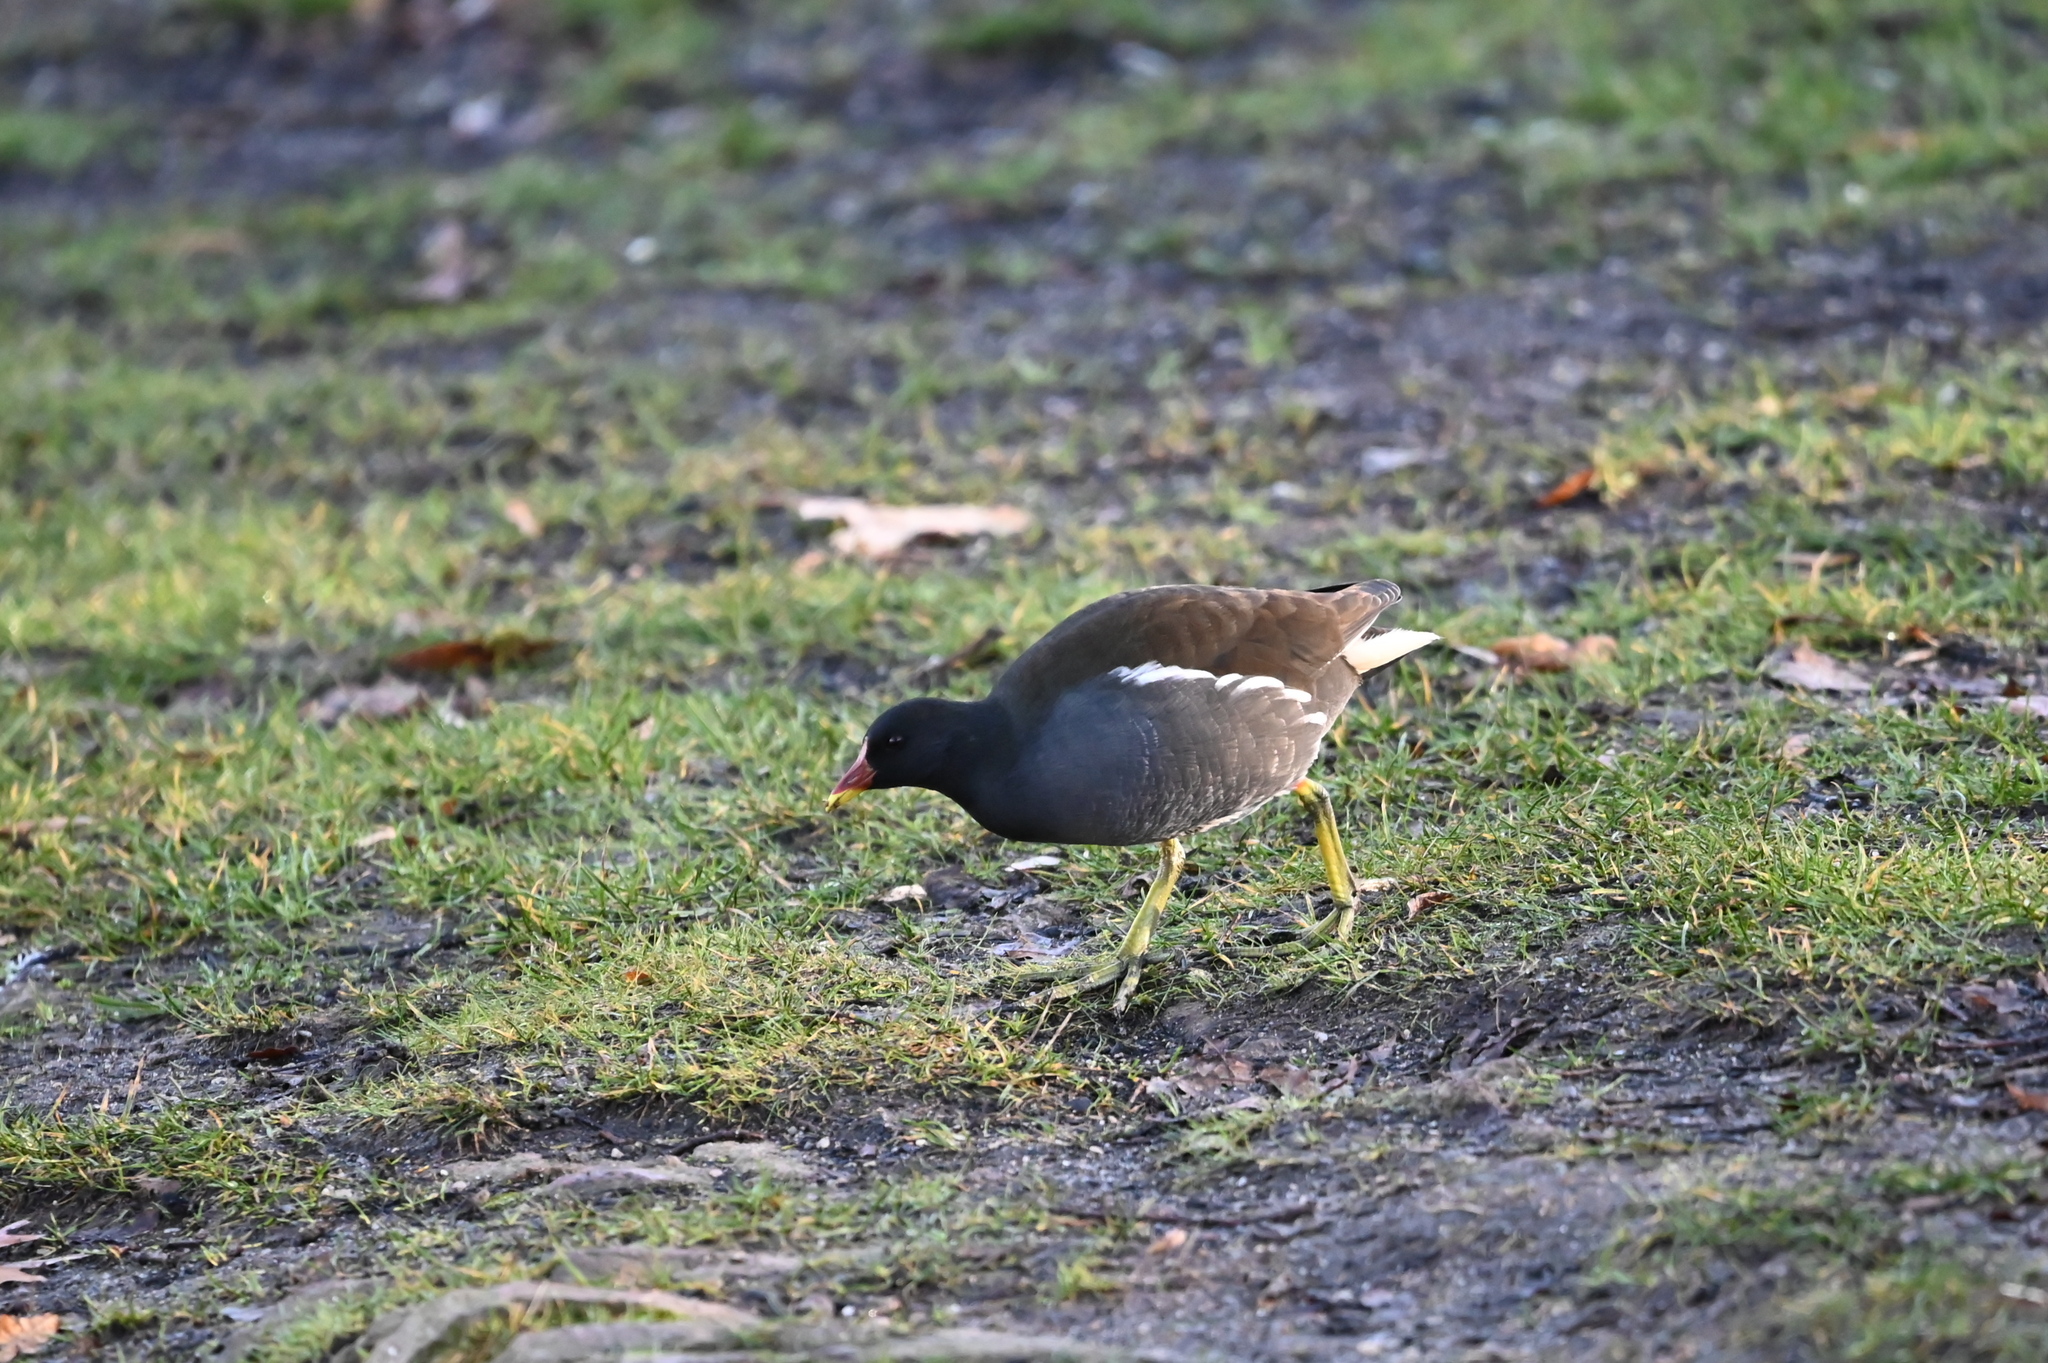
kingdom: Animalia
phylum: Chordata
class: Aves
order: Gruiformes
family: Rallidae
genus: Gallinula
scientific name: Gallinula chloropus
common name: Common moorhen
